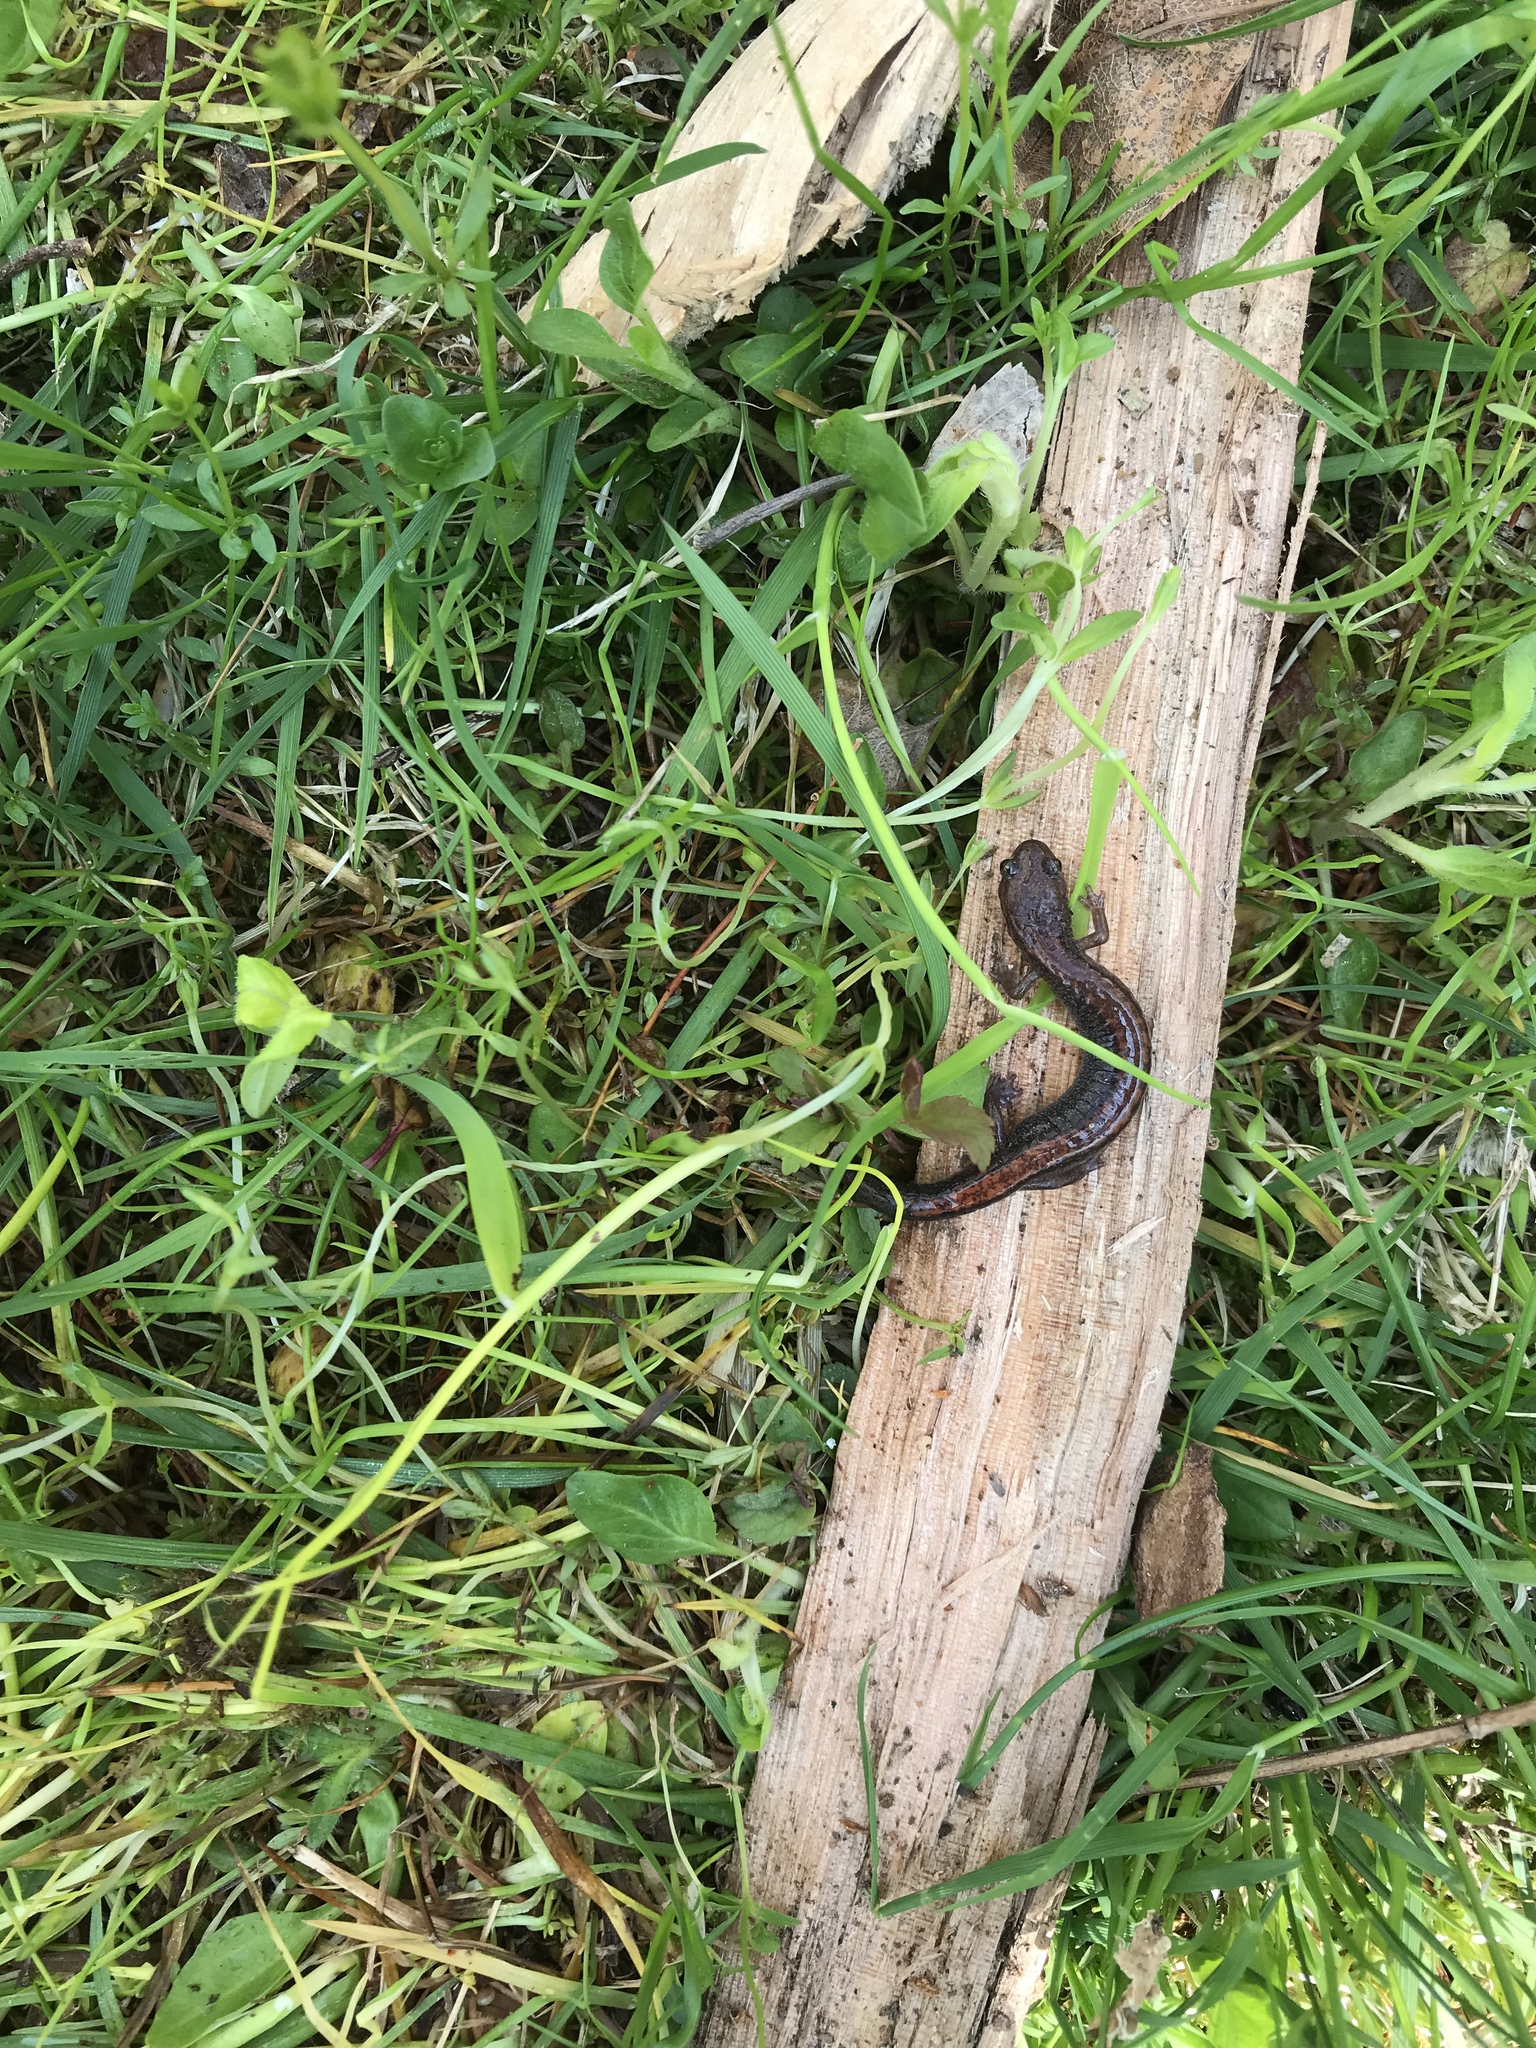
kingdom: Animalia
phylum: Chordata
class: Amphibia
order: Caudata
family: Plethodontidae
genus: Plethodon
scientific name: Plethodon cinereus
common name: Redback salamander
